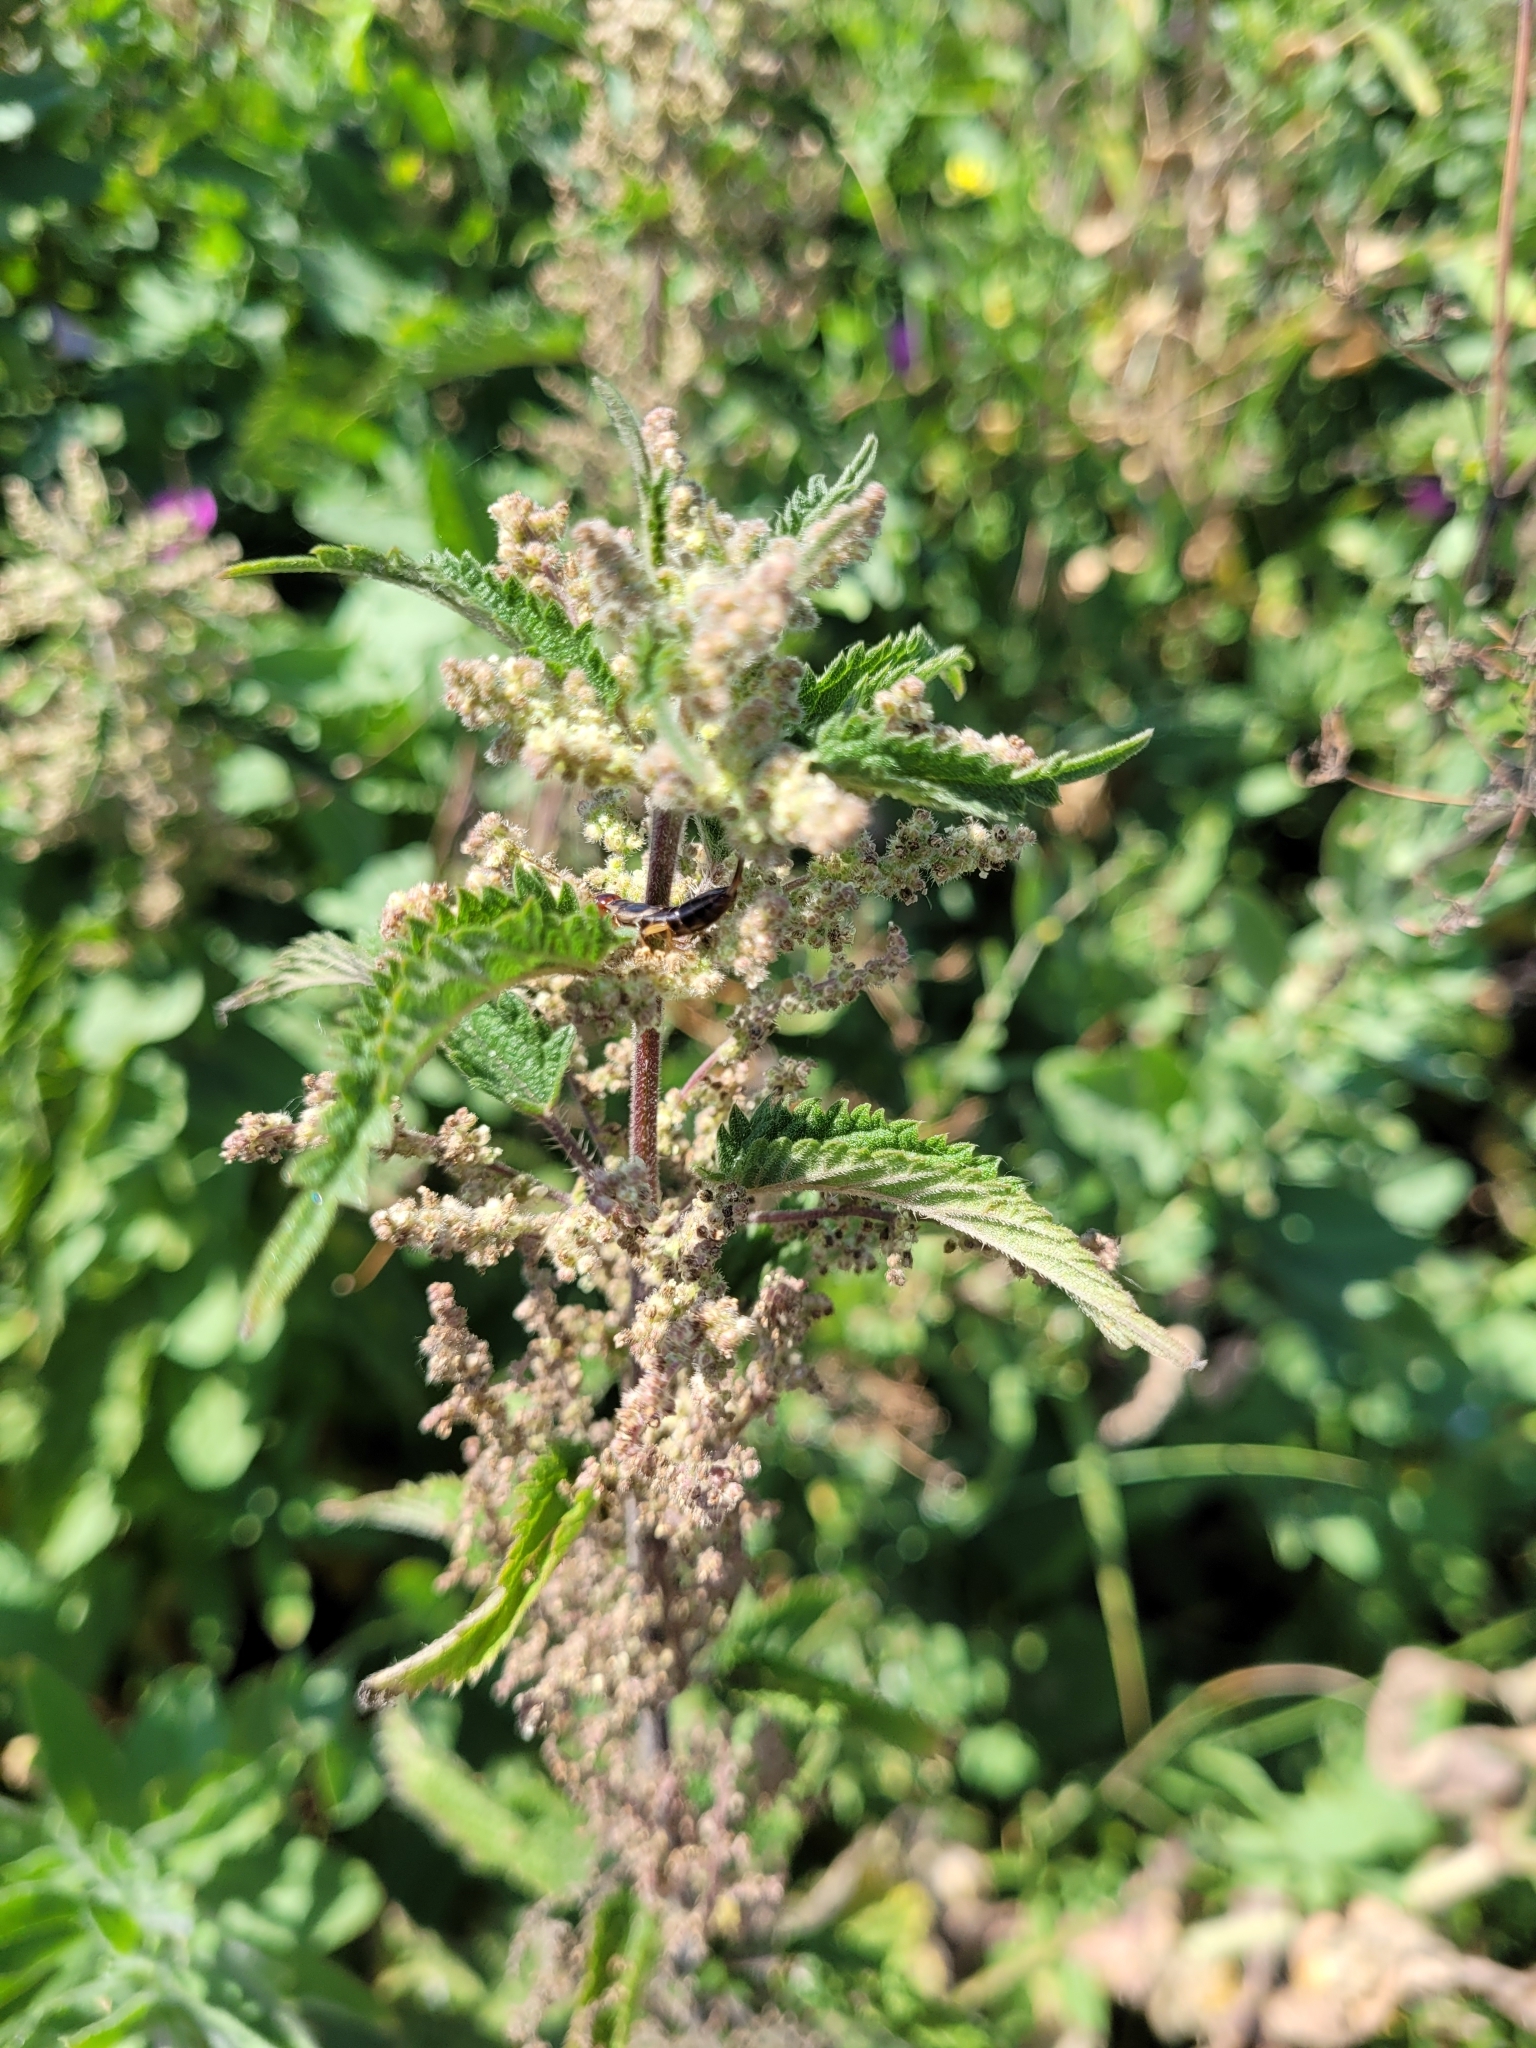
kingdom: Plantae
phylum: Tracheophyta
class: Magnoliopsida
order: Rosales
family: Urticaceae
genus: Urtica
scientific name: Urtica dioica
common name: Common nettle
